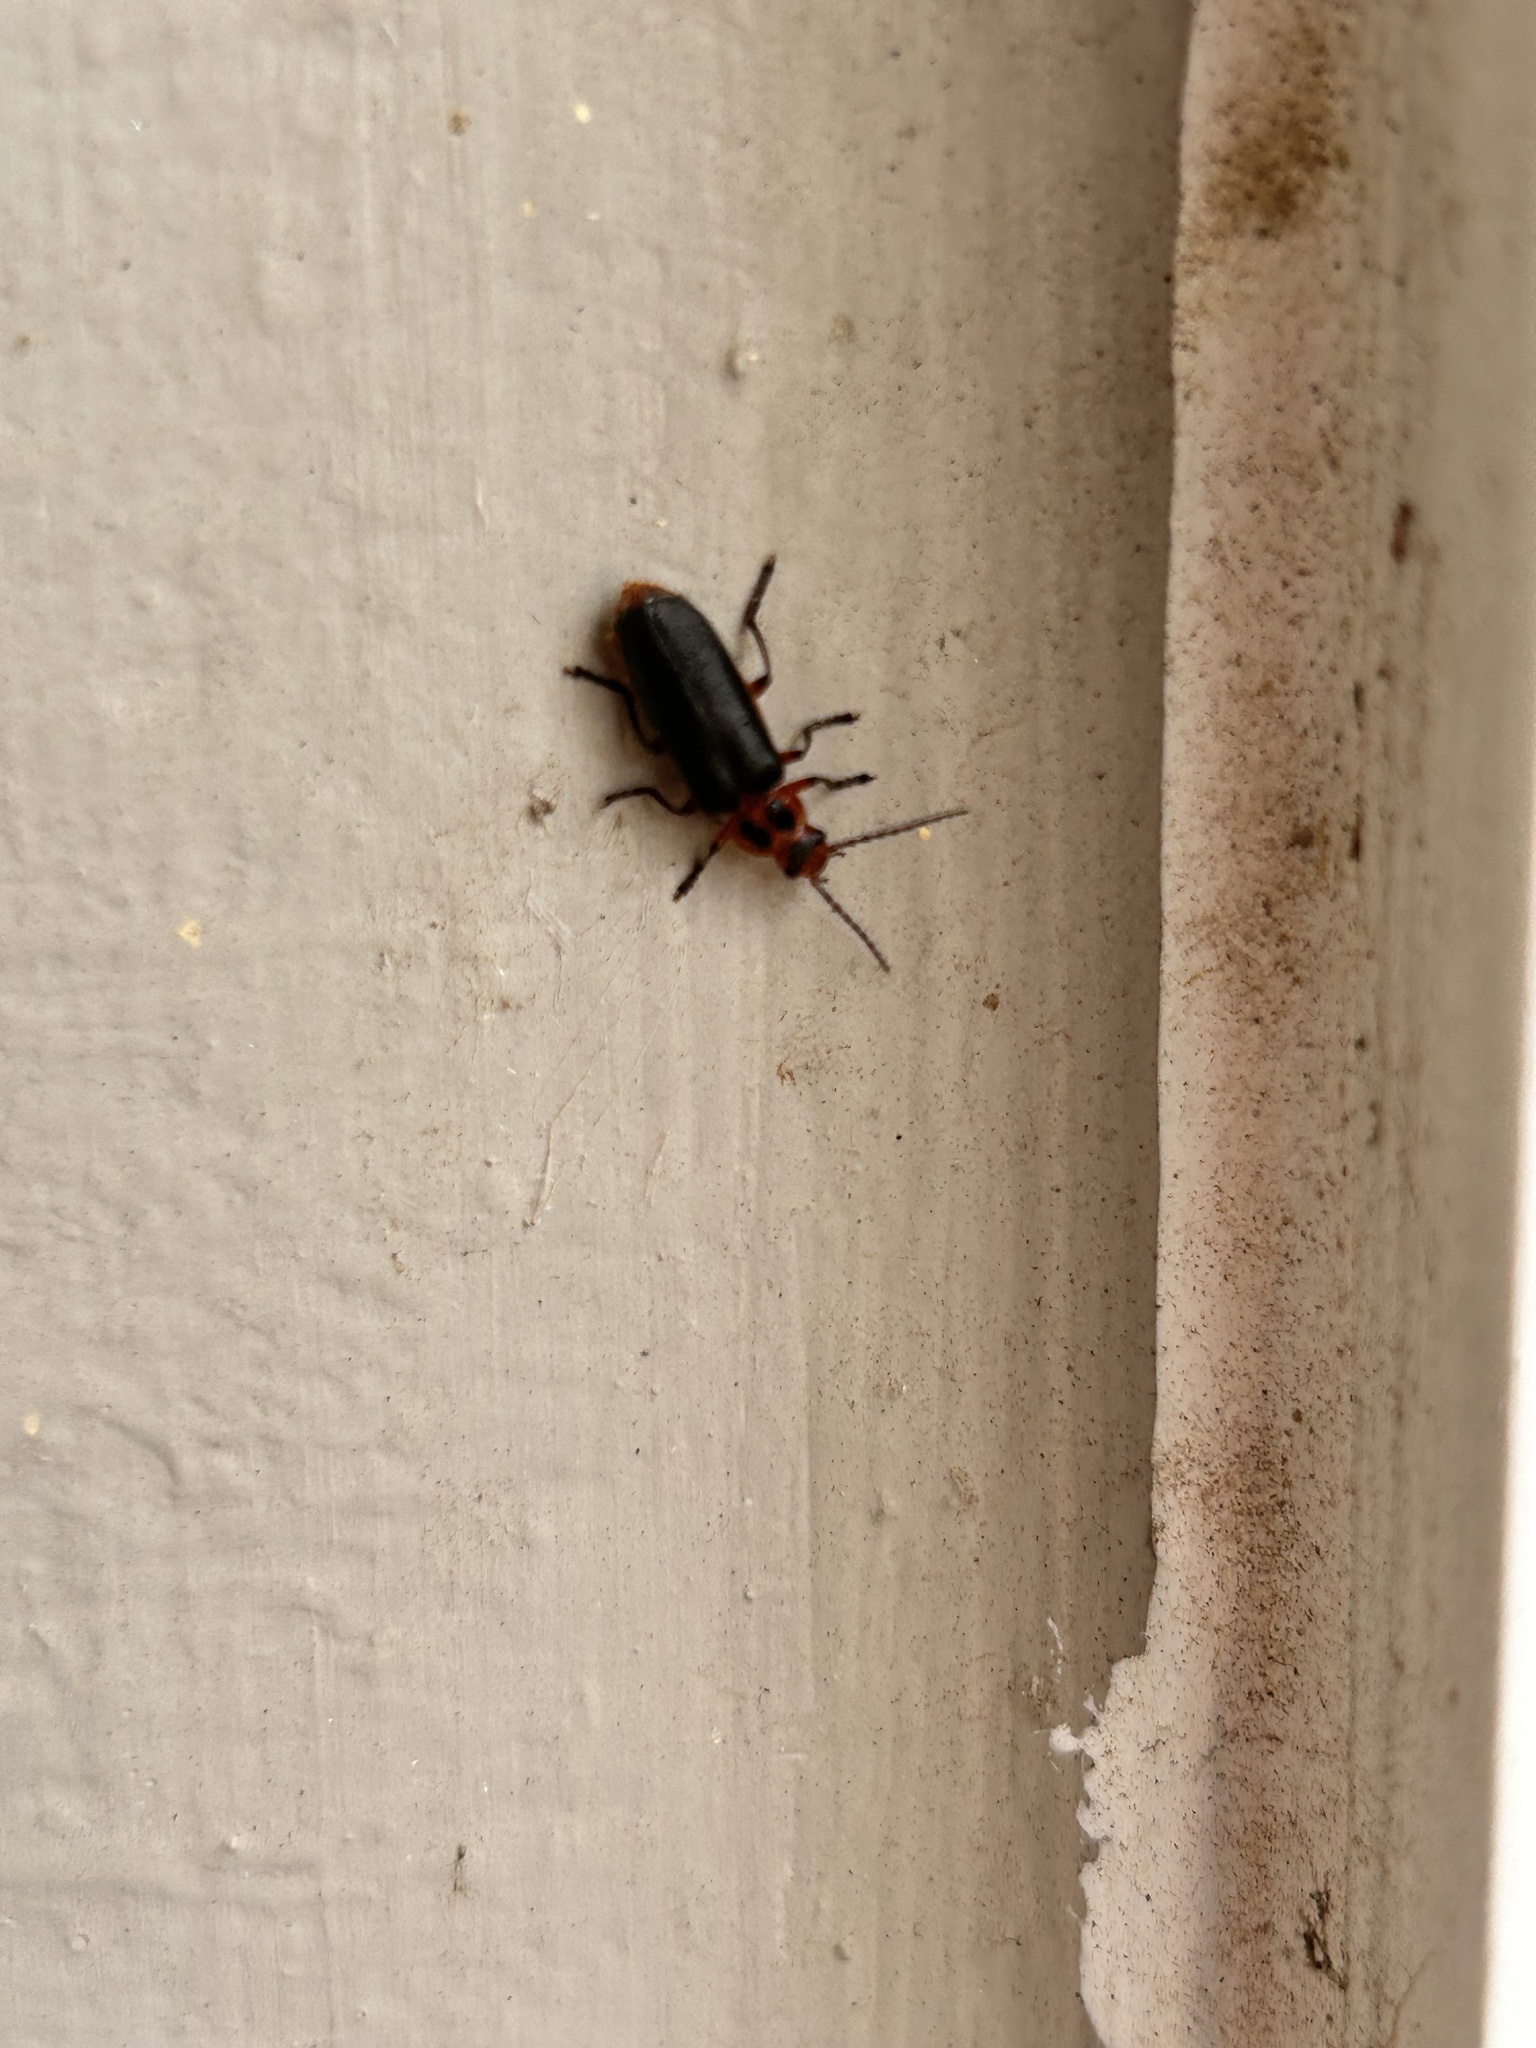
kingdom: Animalia
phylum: Arthropoda
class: Insecta
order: Coleoptera
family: Cantharidae
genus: Atalantycha
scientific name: Atalantycha bilineata
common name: Two-lined leatherwing
